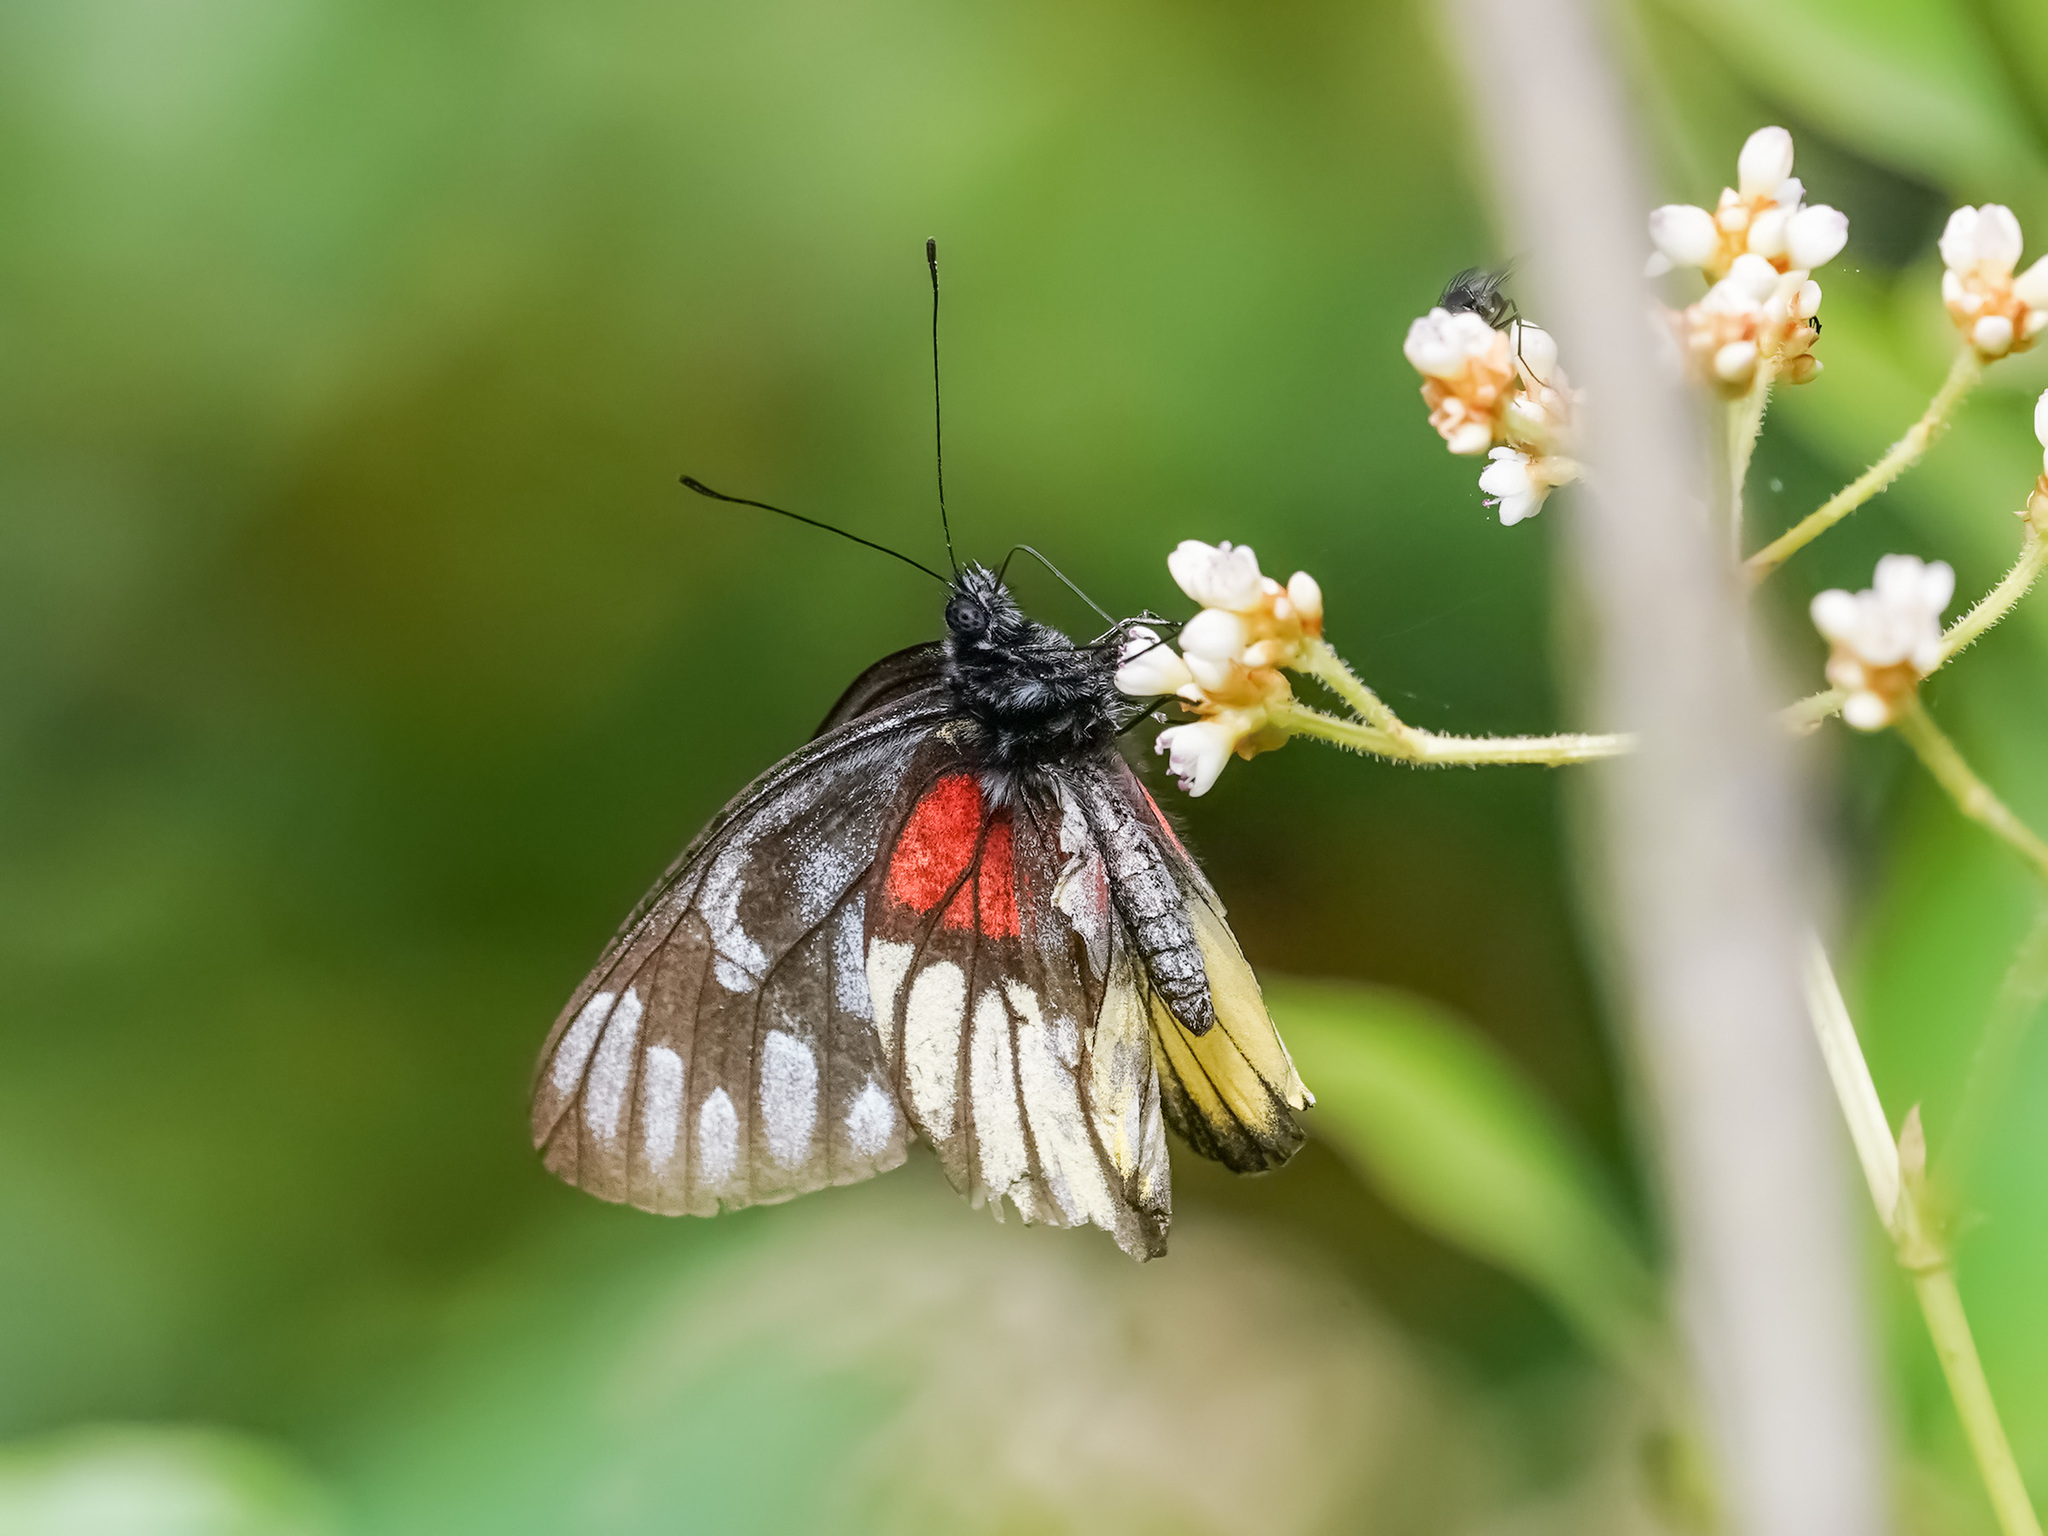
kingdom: Animalia
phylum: Arthropoda
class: Insecta
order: Lepidoptera
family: Pieridae
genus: Delias
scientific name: Delias ninus
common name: Malayan jezebel
